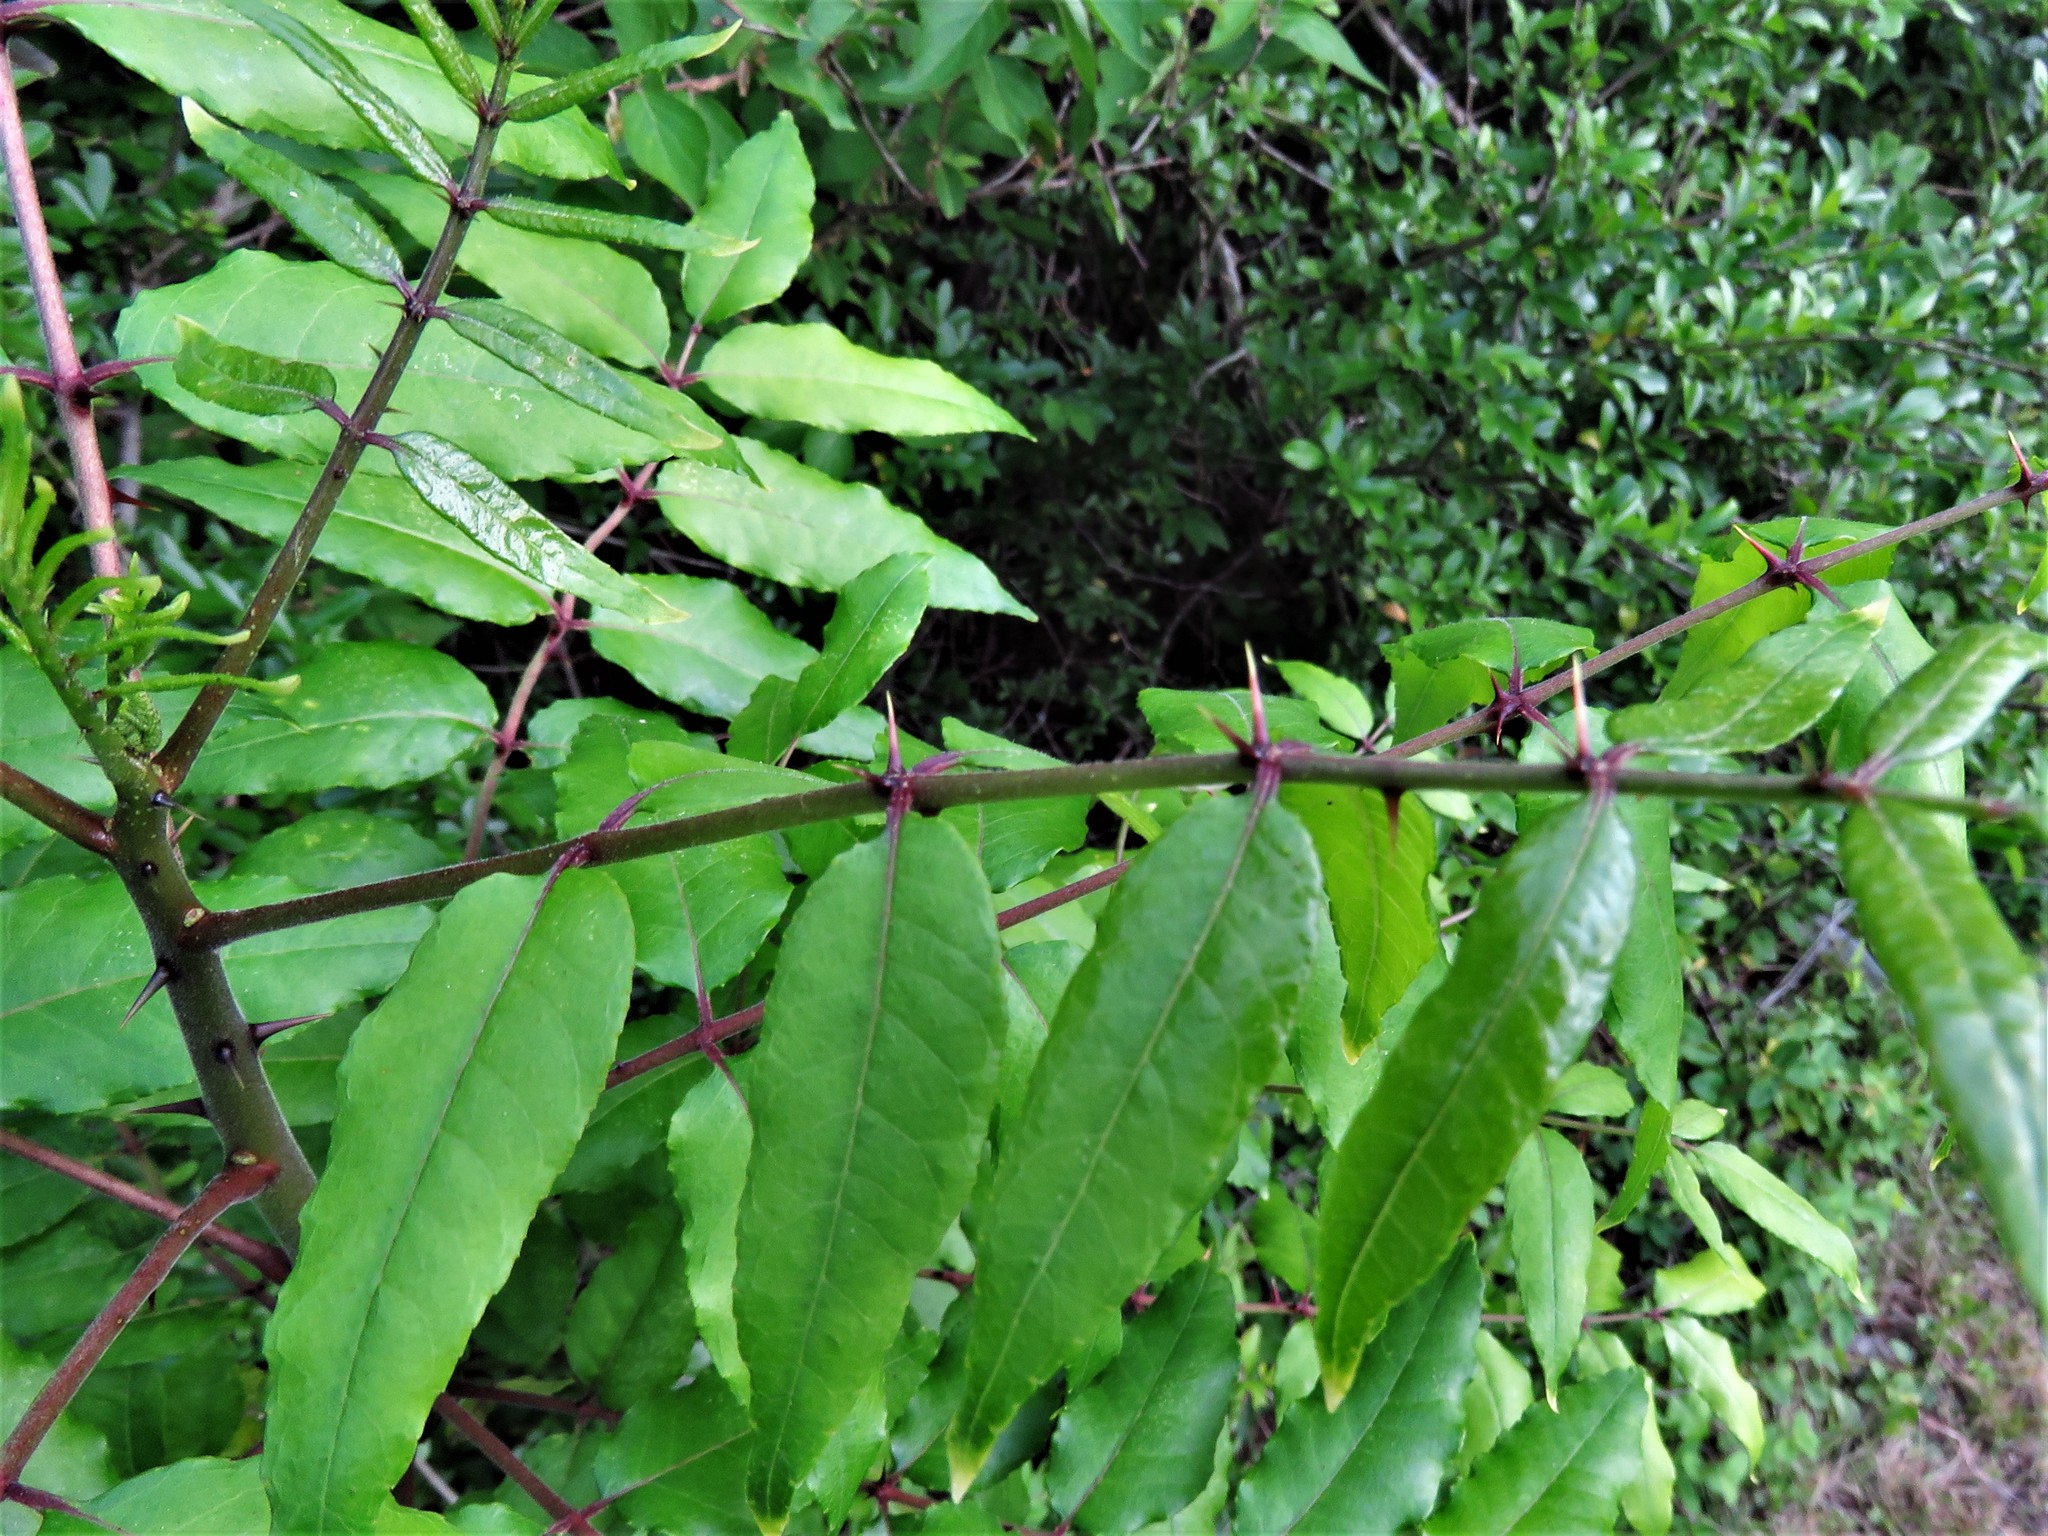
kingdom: Plantae
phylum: Tracheophyta
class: Magnoliopsida
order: Sapindales
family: Rutaceae
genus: Zanthoxylum
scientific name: Zanthoxylum clava-herculis
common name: Hercules'-club
